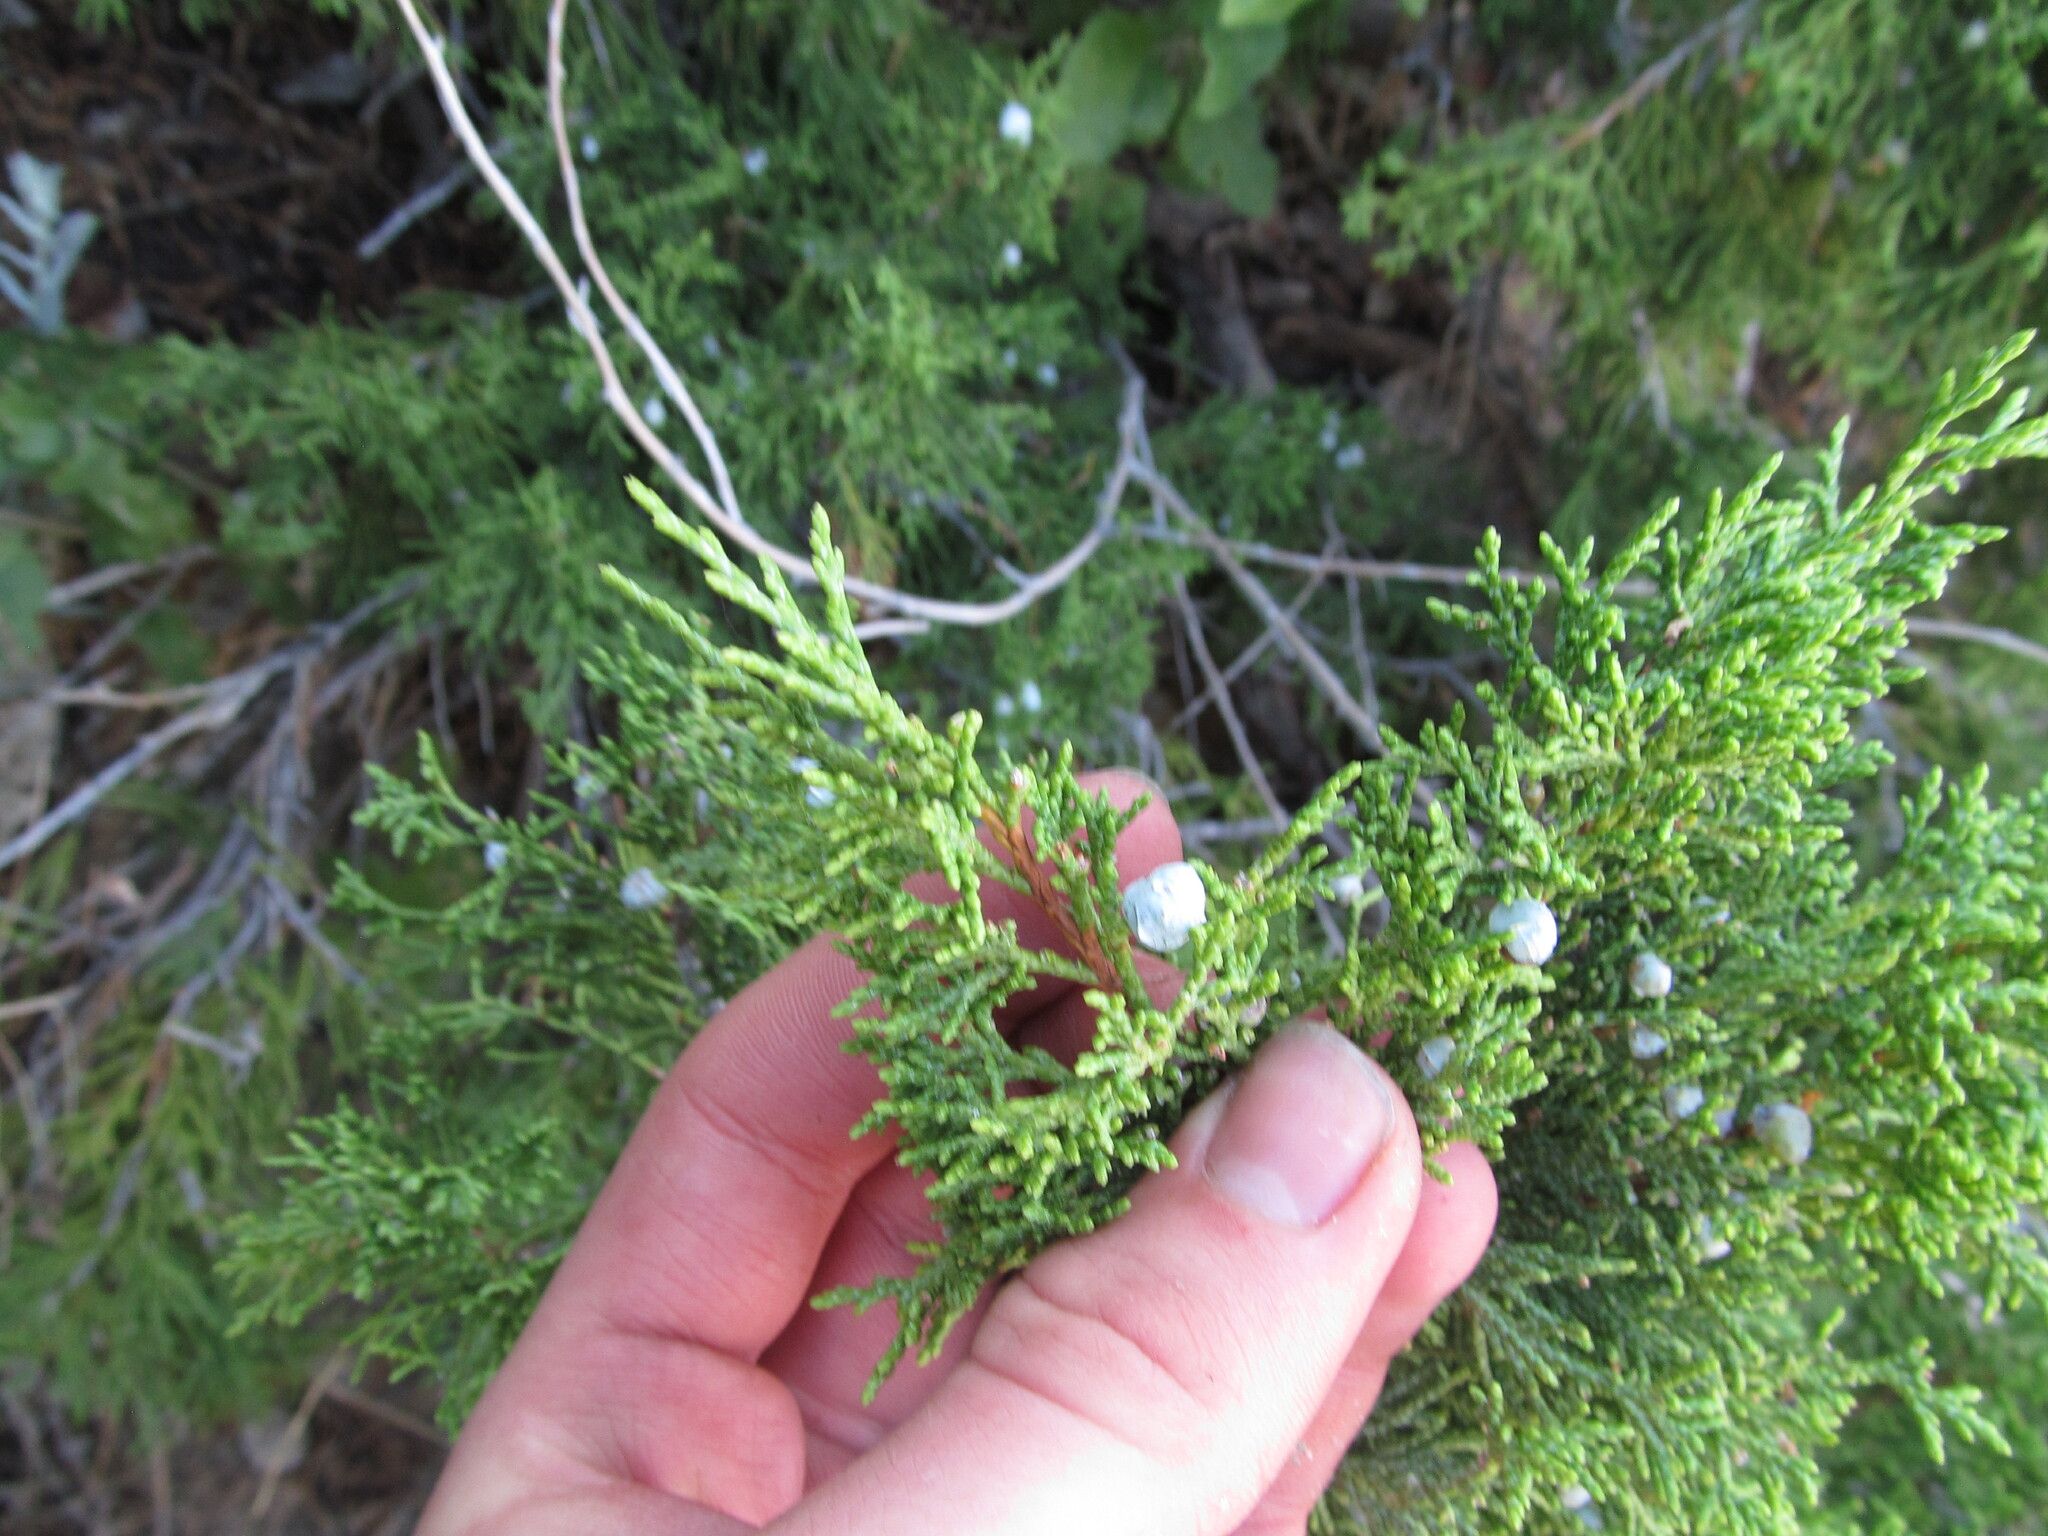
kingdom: Plantae
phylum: Tracheophyta
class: Pinopsida
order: Pinales
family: Cupressaceae
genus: Juniperus
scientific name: Juniperus osteosperma
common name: Utah juniper
